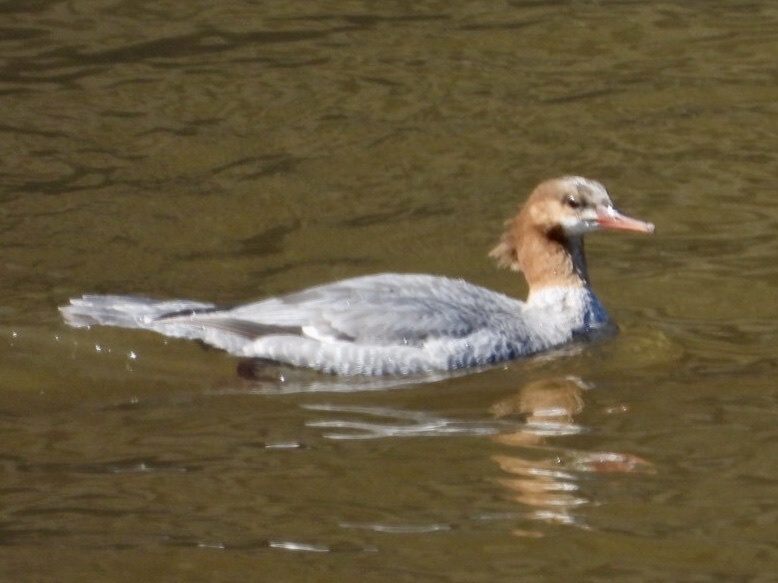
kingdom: Animalia
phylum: Chordata
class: Aves
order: Anseriformes
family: Anatidae
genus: Mergus
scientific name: Mergus merganser
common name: Common merganser
